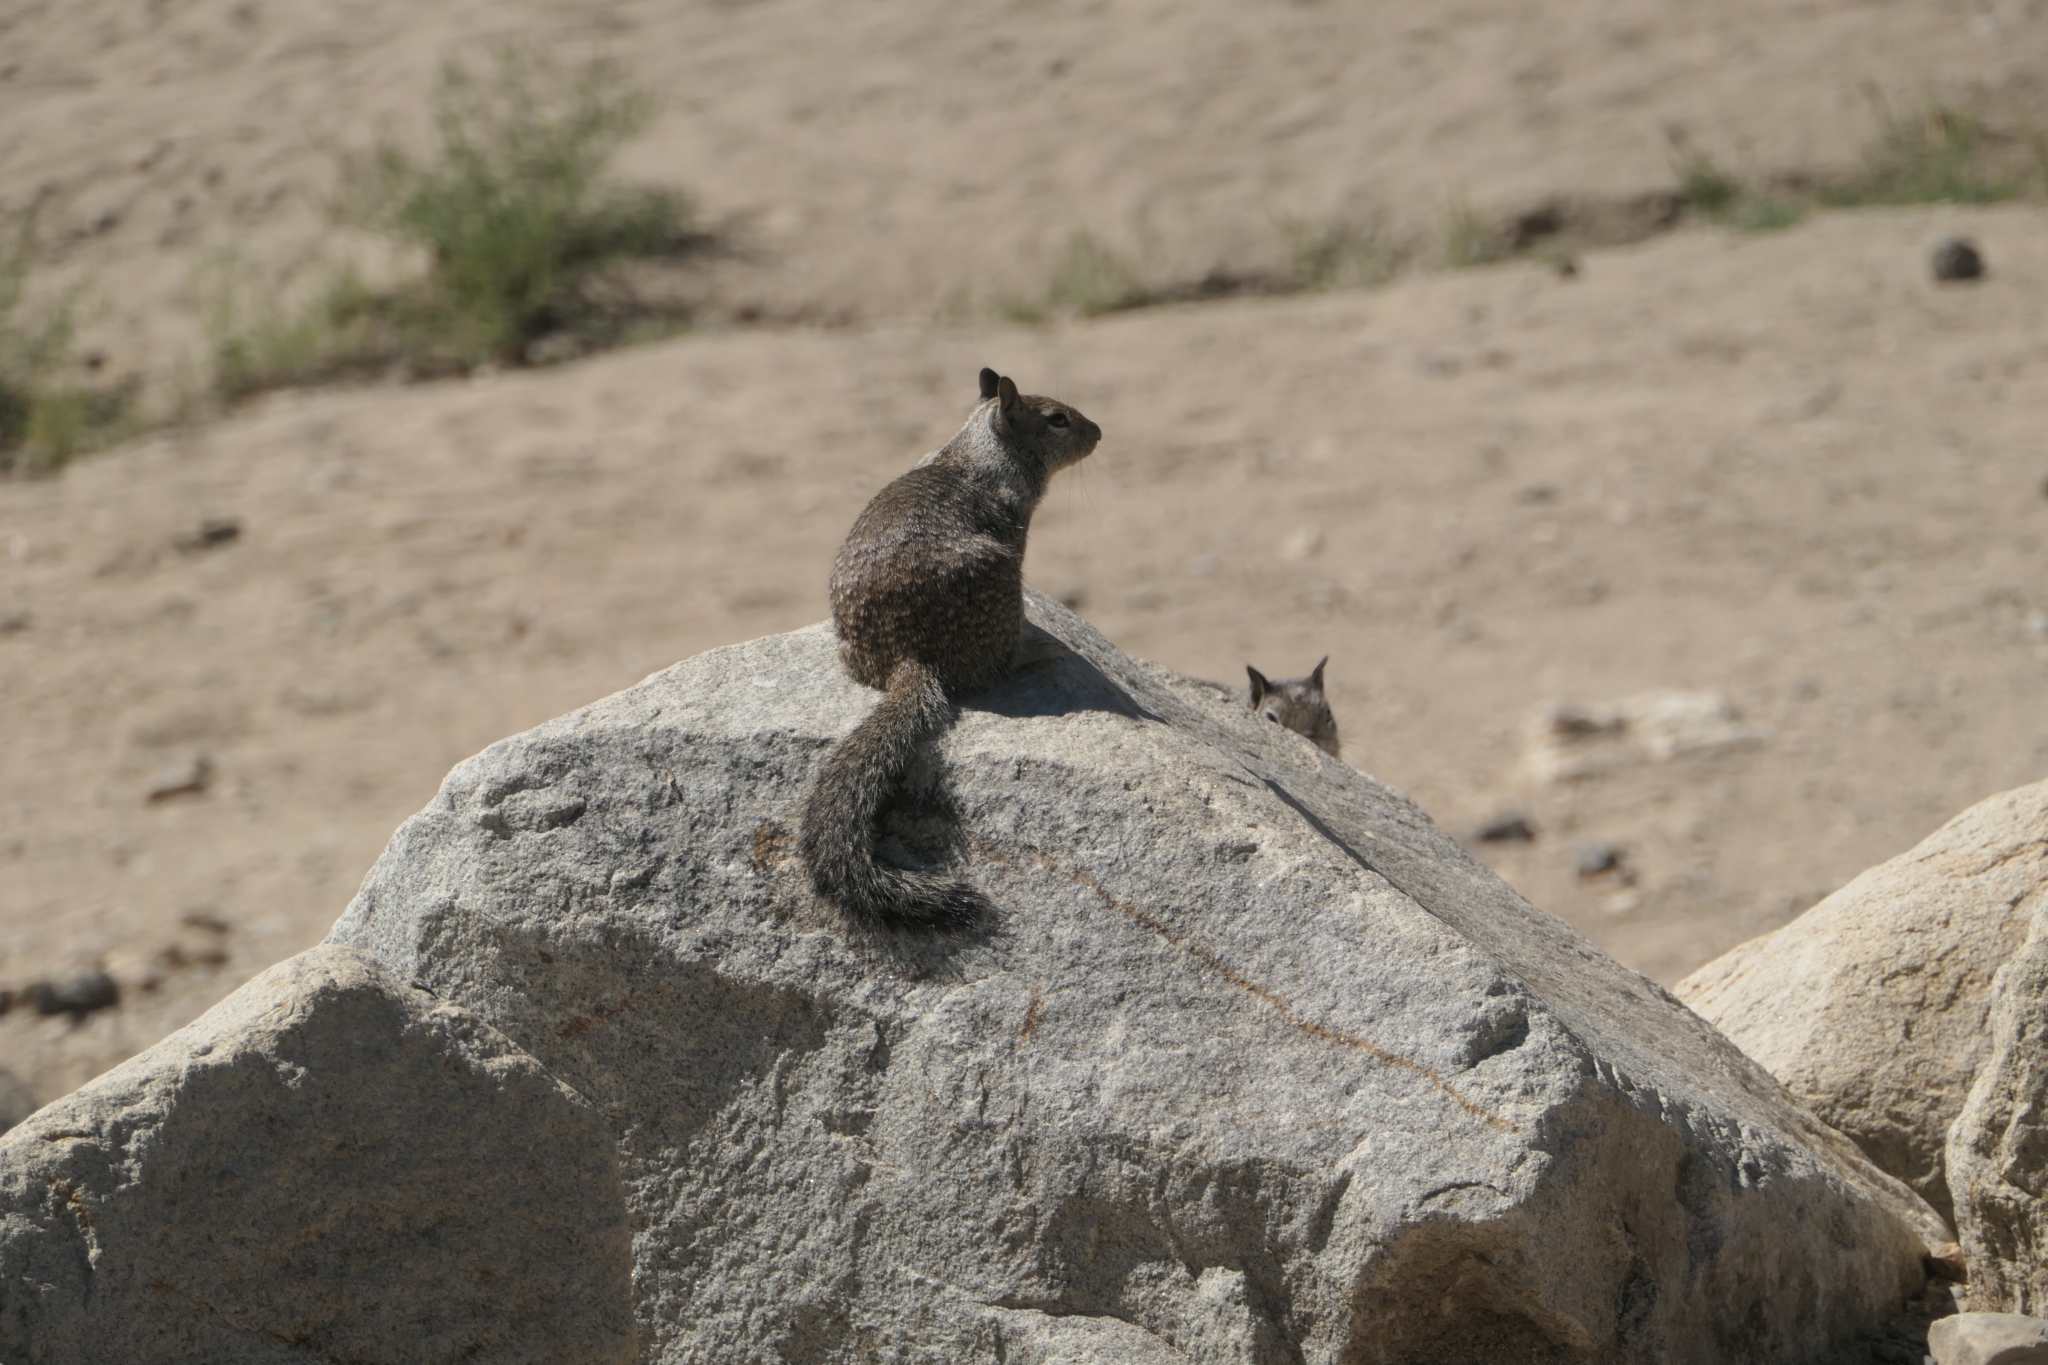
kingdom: Animalia
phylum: Chordata
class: Mammalia
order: Rodentia
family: Sciuridae
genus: Otospermophilus
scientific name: Otospermophilus beecheyi
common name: California ground squirrel
